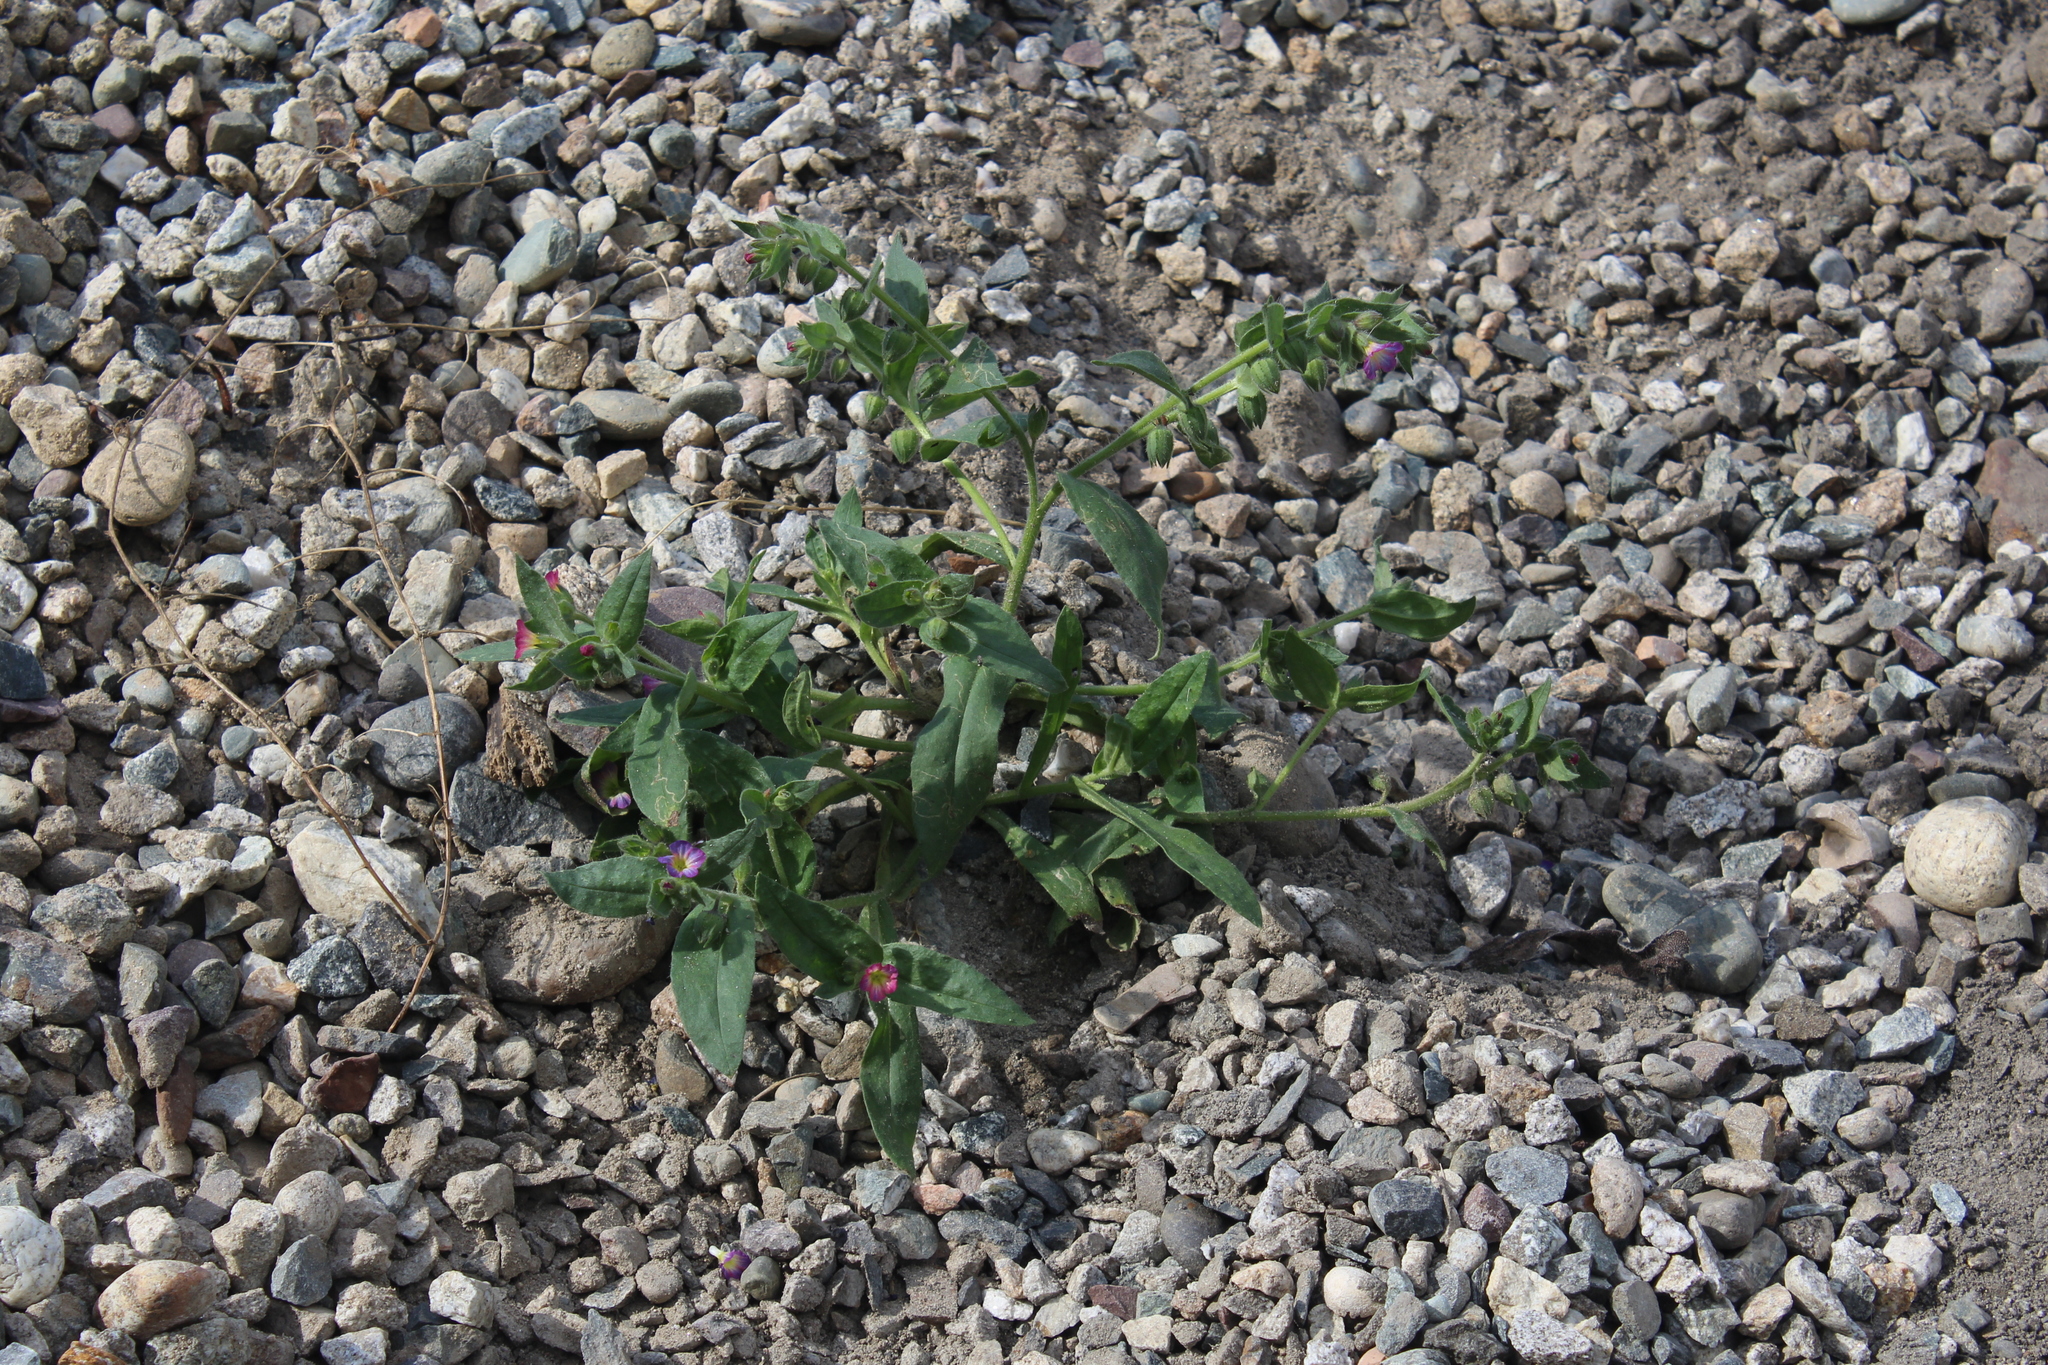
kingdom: Plantae
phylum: Tracheophyta
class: Magnoliopsida
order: Boraginales
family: Boraginaceae
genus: Nonea
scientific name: Nonea versicolor
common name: Varied monkswort
